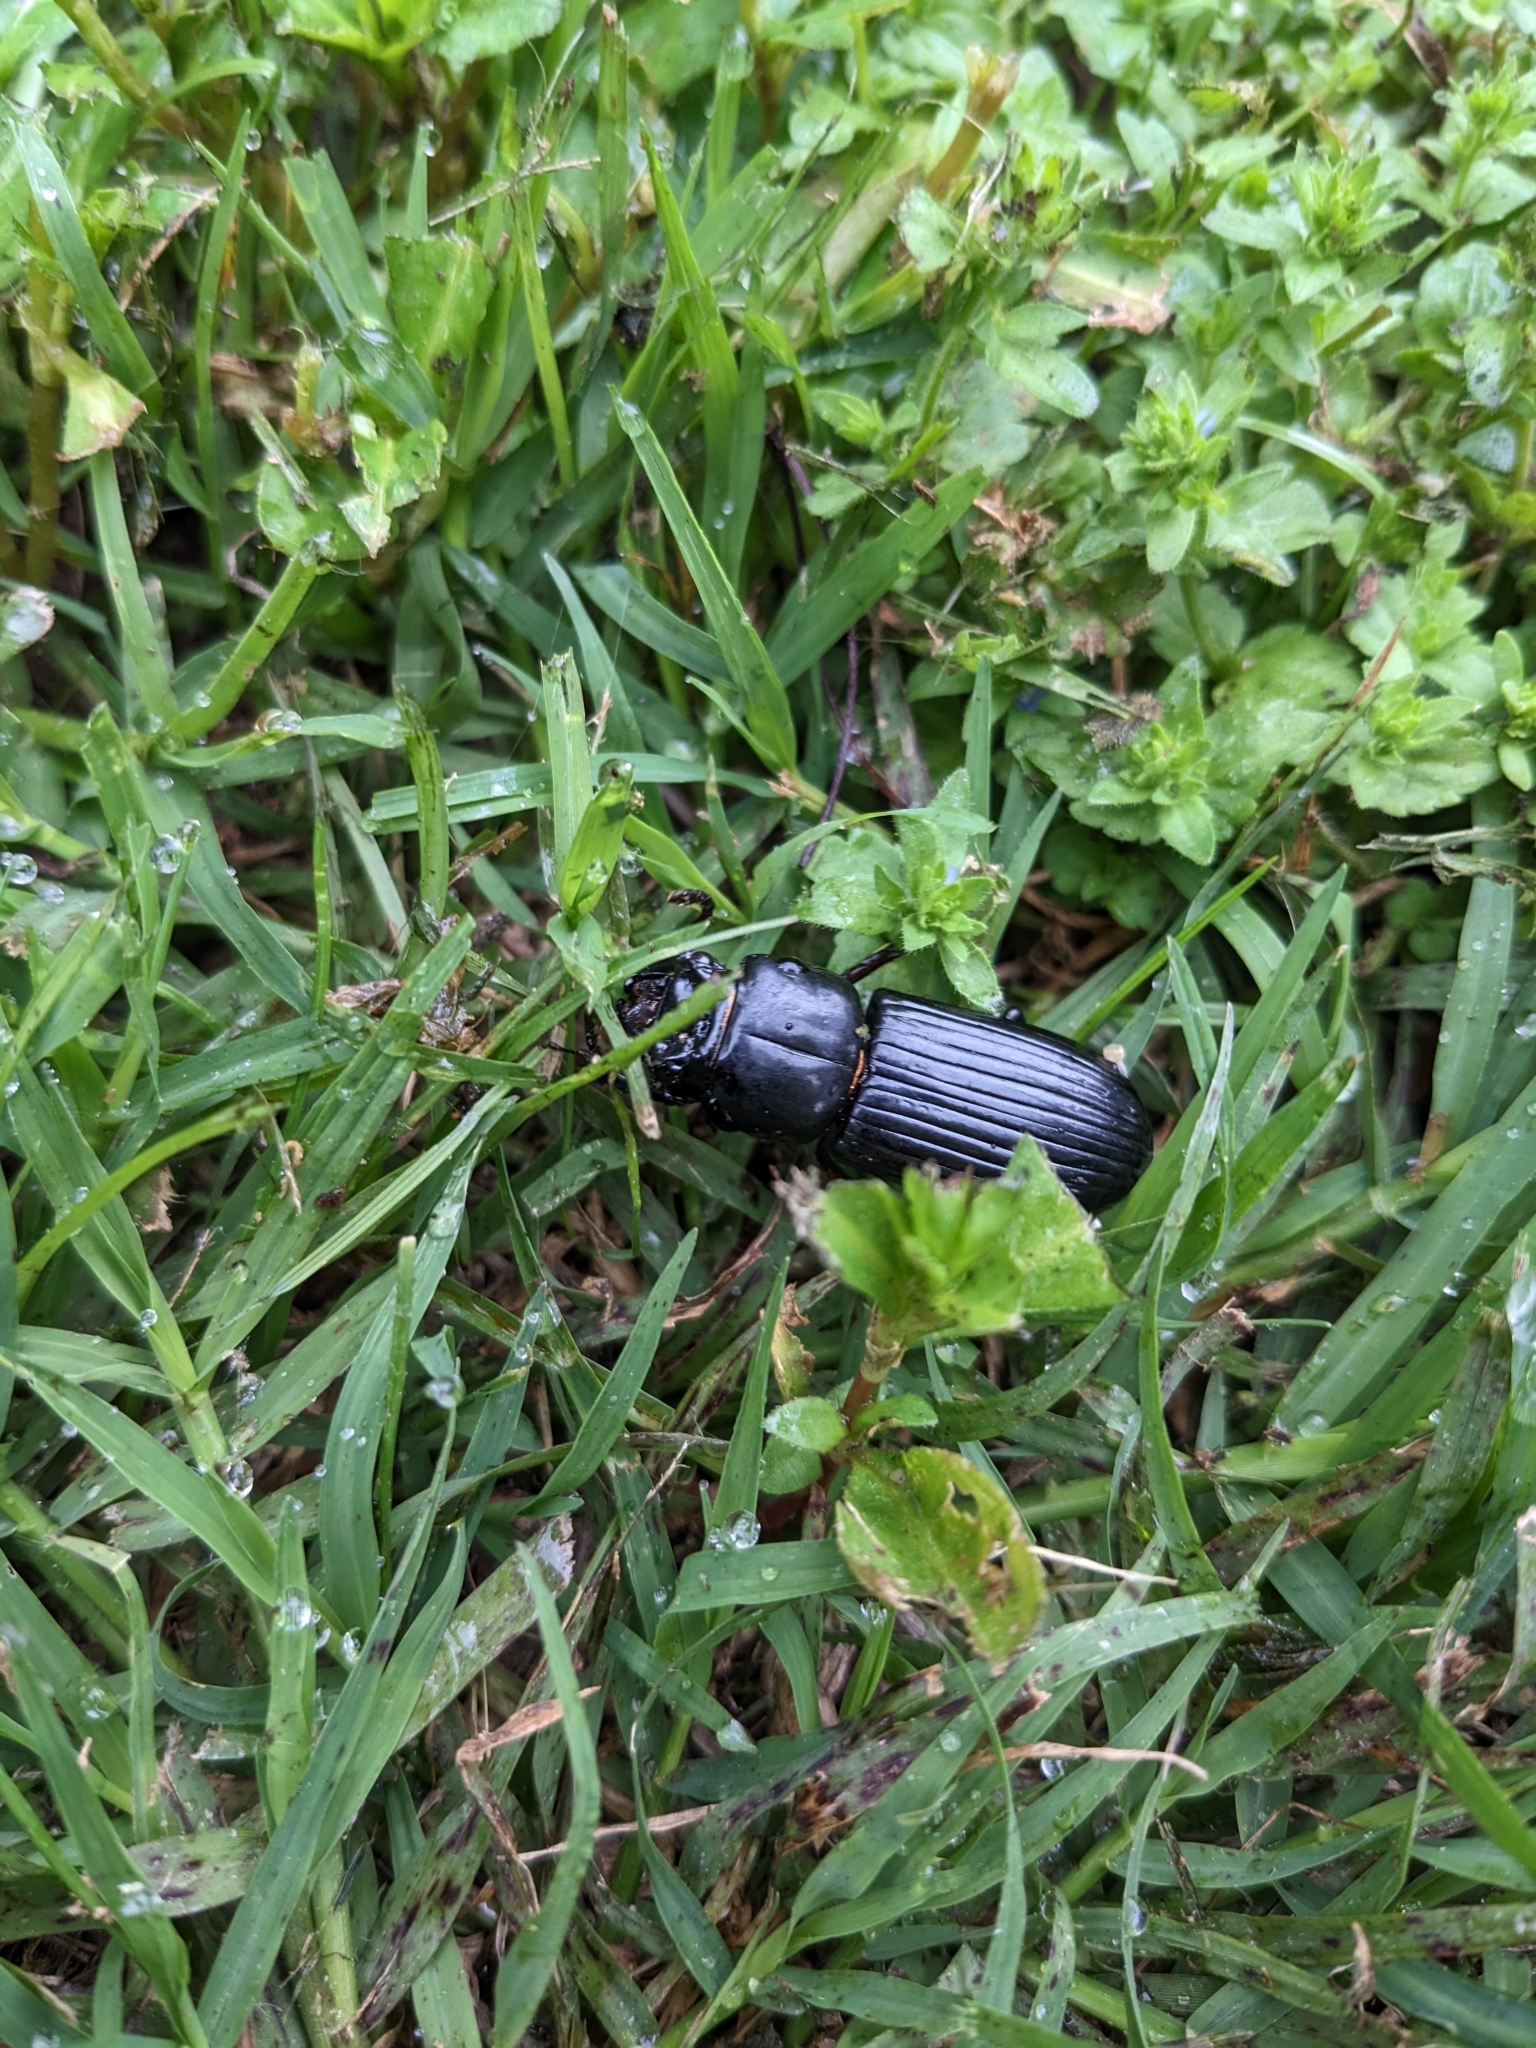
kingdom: Animalia
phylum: Arthropoda
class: Insecta
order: Coleoptera
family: Passalidae
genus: Odontotaenius
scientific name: Odontotaenius disjunctus
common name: Patent leather beetle
